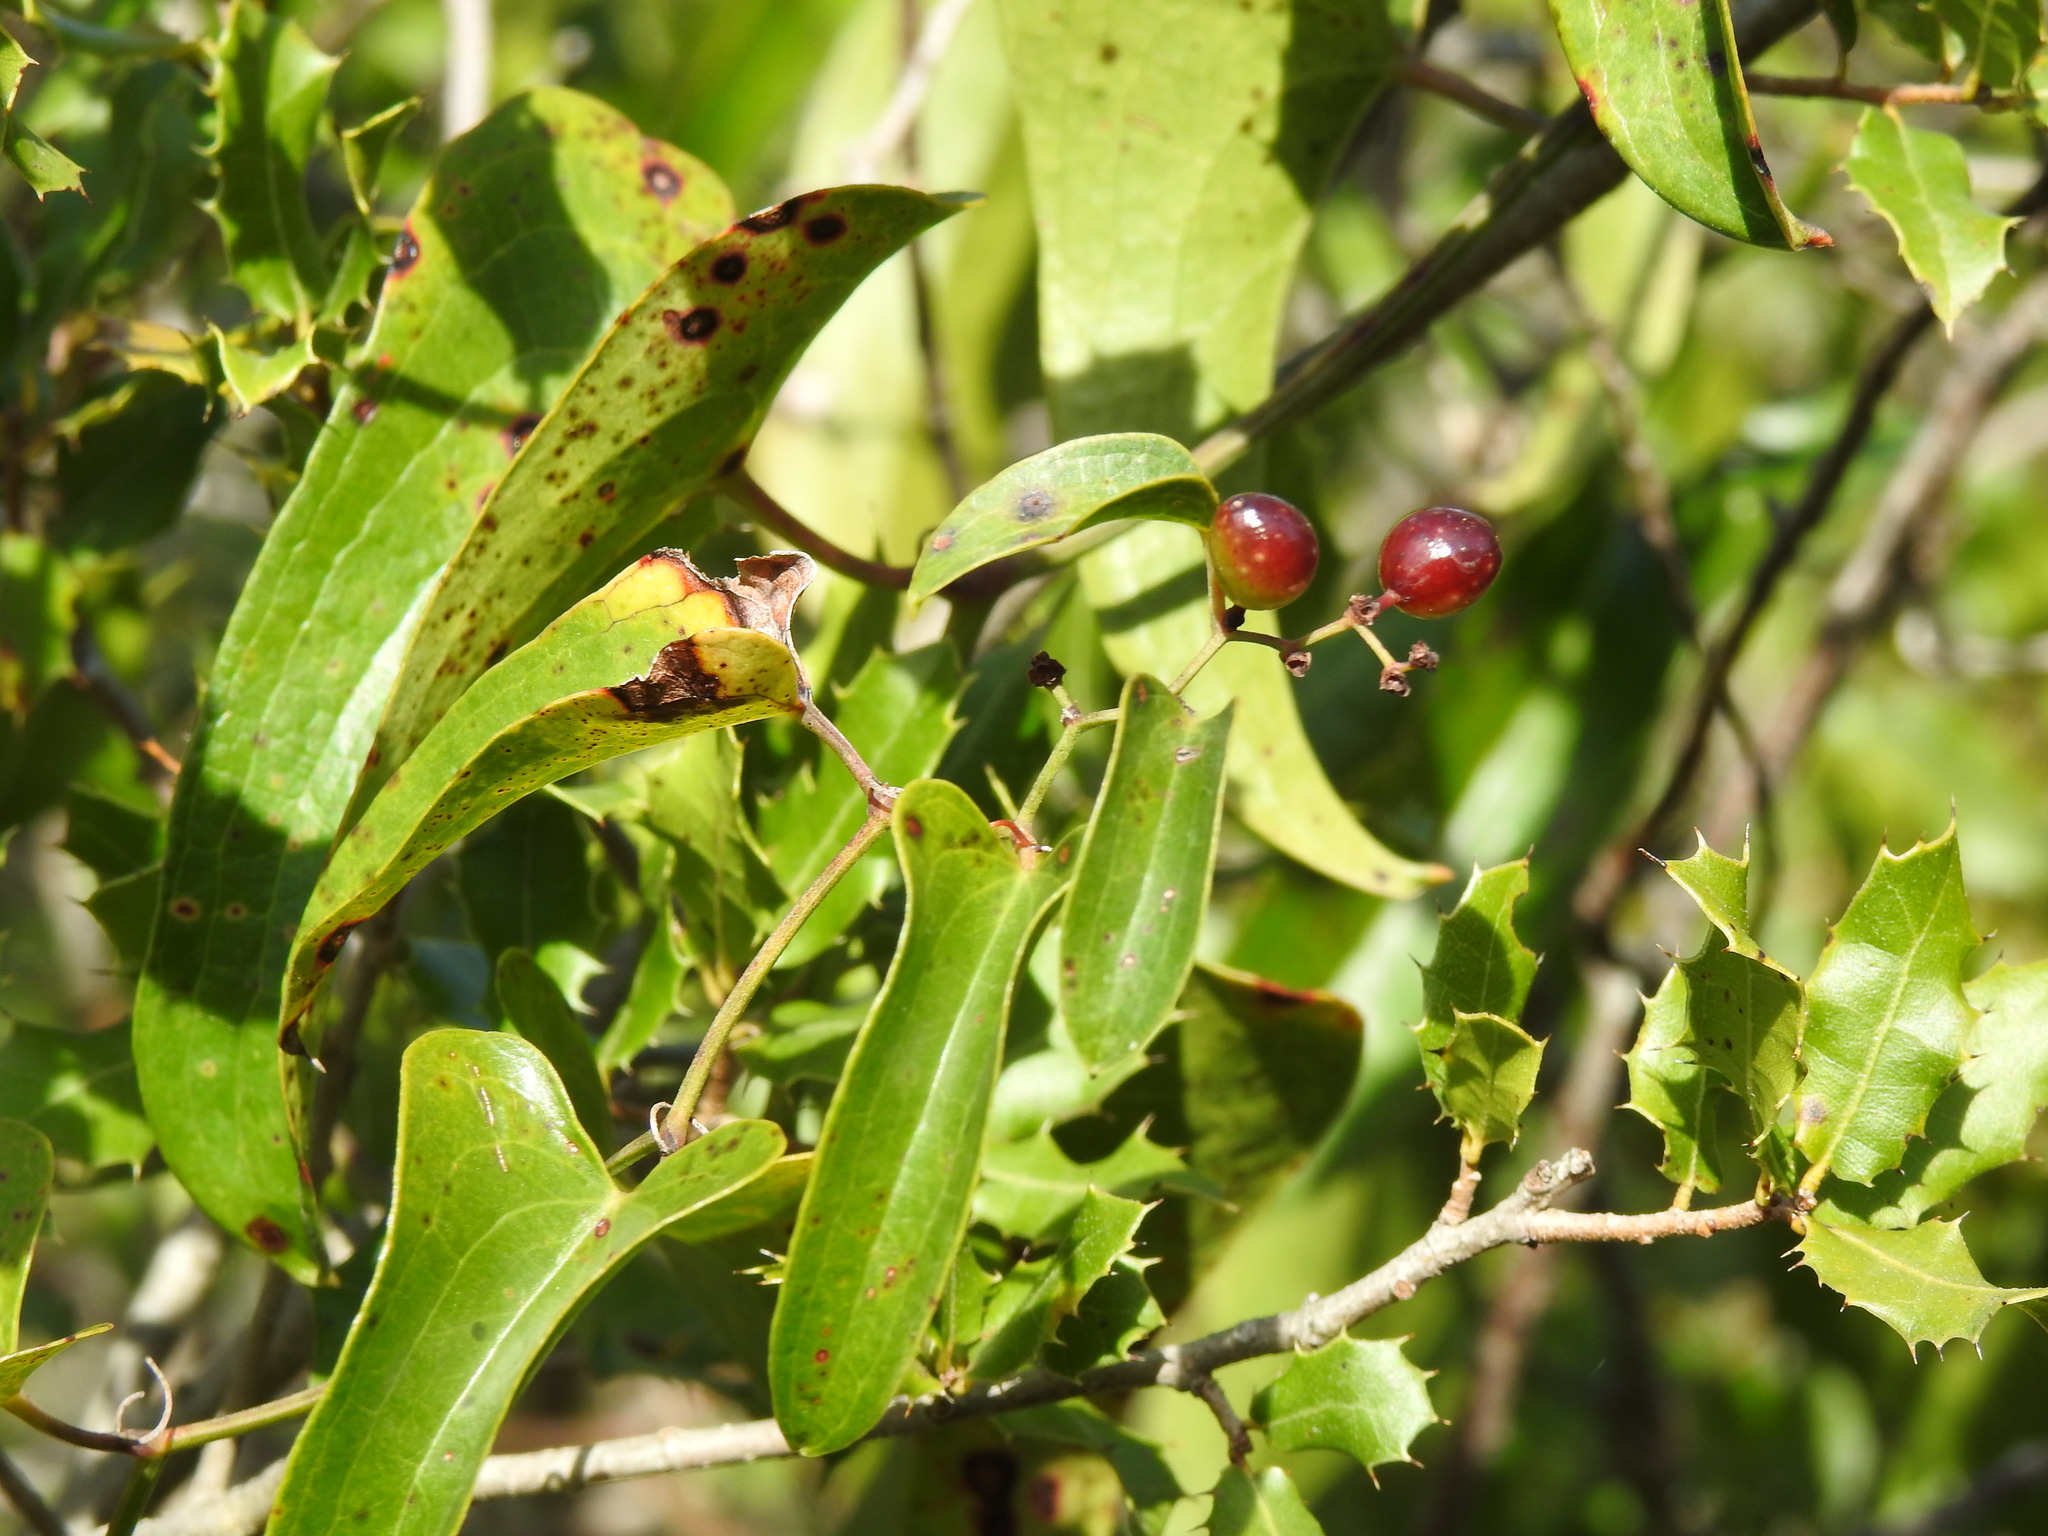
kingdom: Plantae
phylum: Tracheophyta
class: Liliopsida
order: Liliales
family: Smilacaceae
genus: Smilax
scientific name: Smilax aspera
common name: Common smilax
